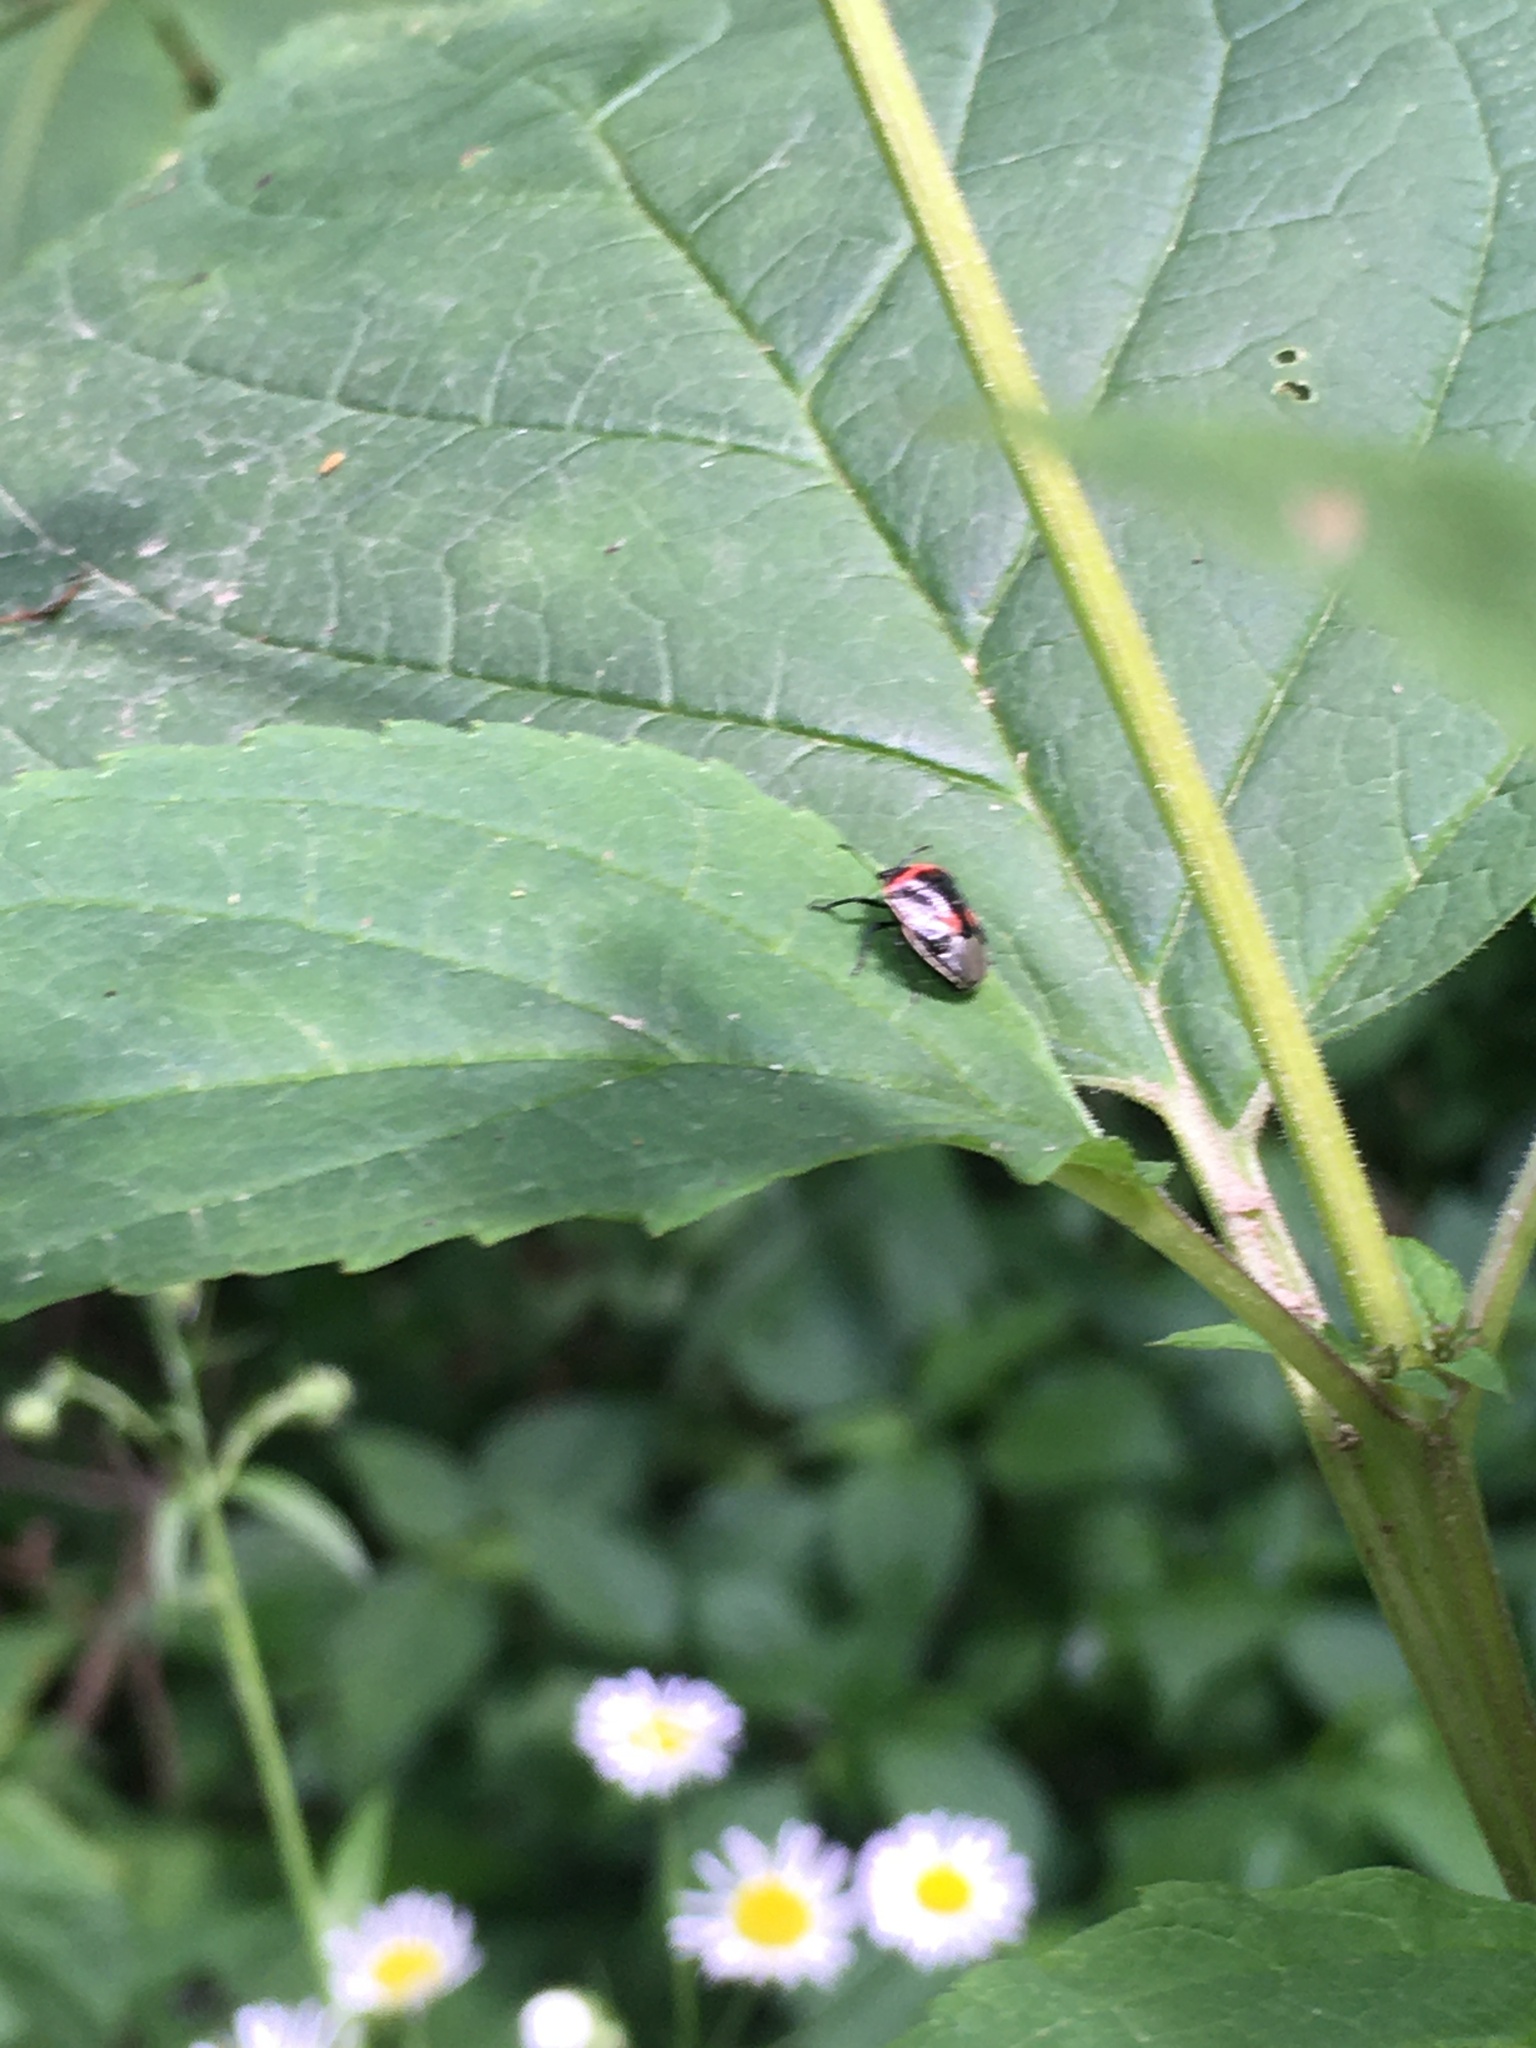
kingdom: Animalia
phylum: Arthropoda
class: Insecta
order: Hemiptera
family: Pentatomidae
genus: Cosmopepla
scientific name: Cosmopepla lintneriana
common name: Twice-stabbed stink bug
